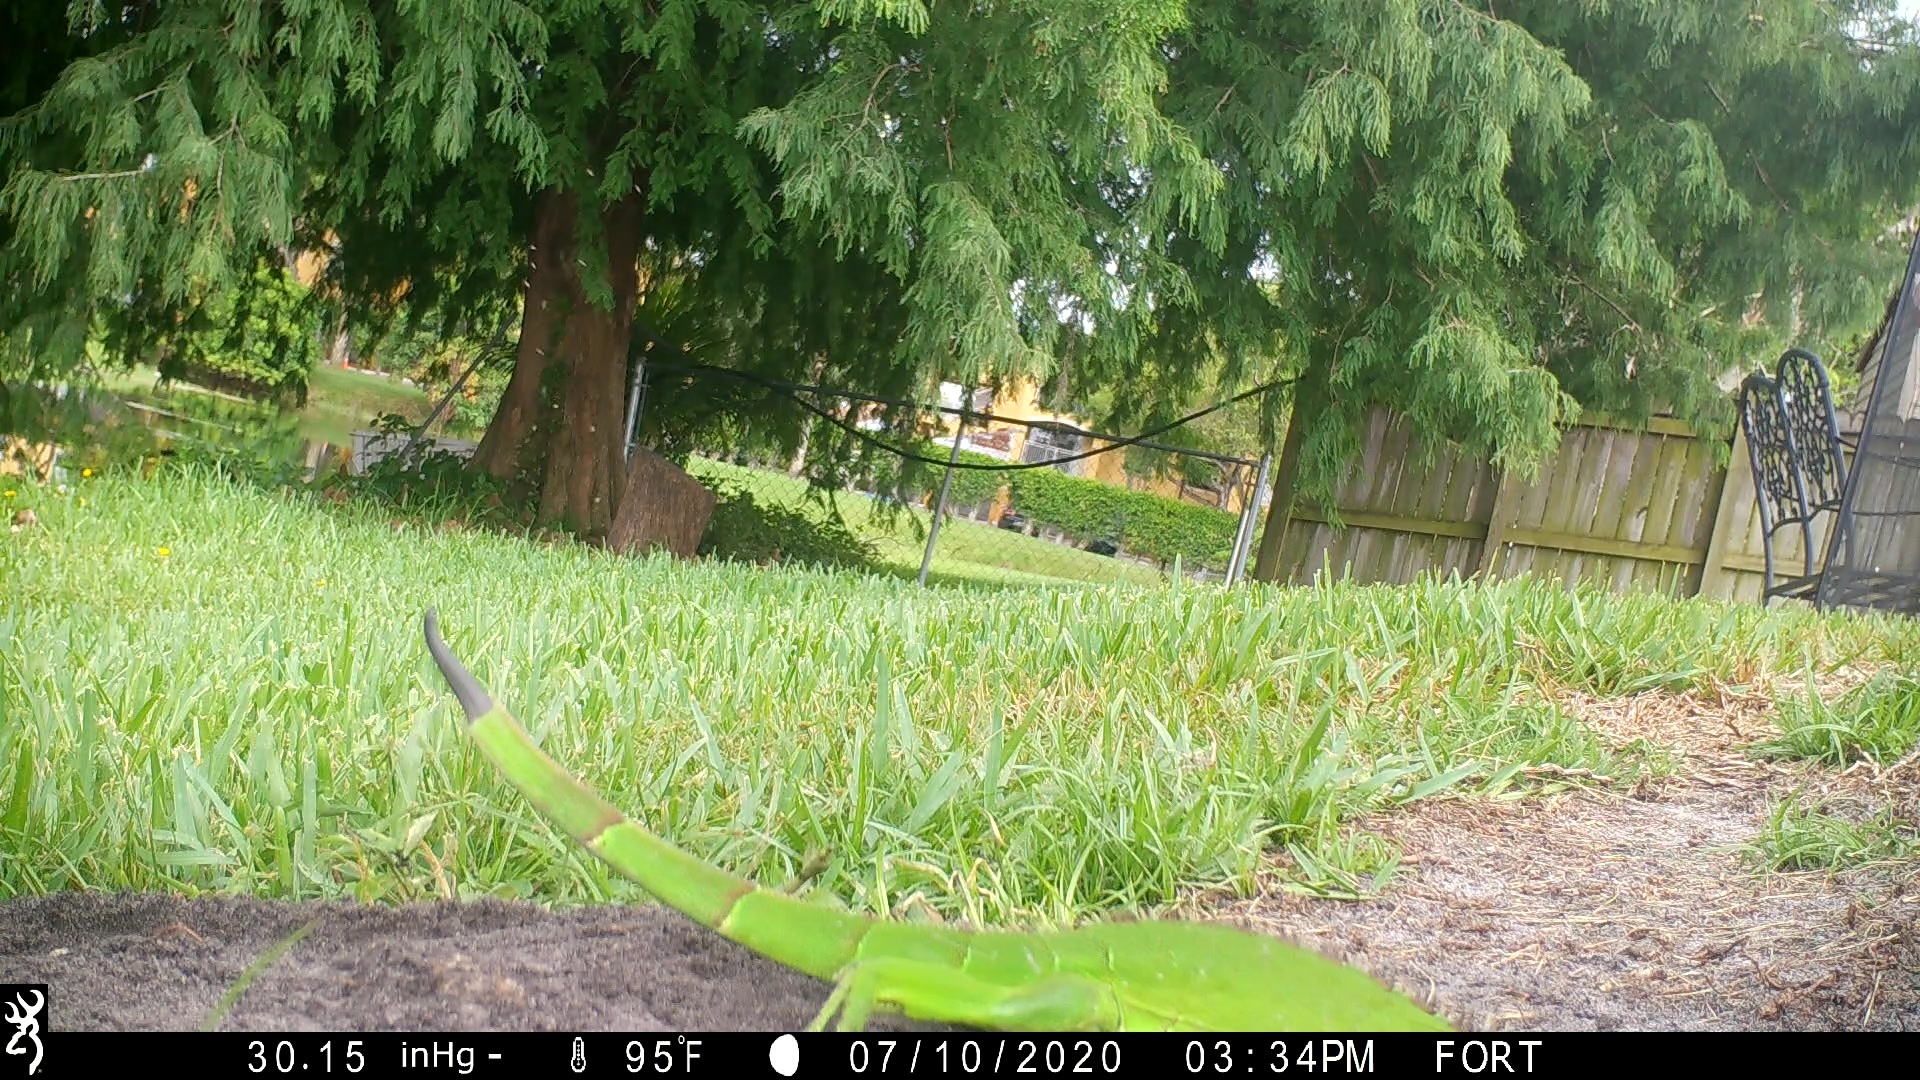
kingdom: Animalia
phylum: Chordata
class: Squamata
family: Iguanidae
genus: Iguana
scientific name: Iguana iguana
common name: Green iguana
